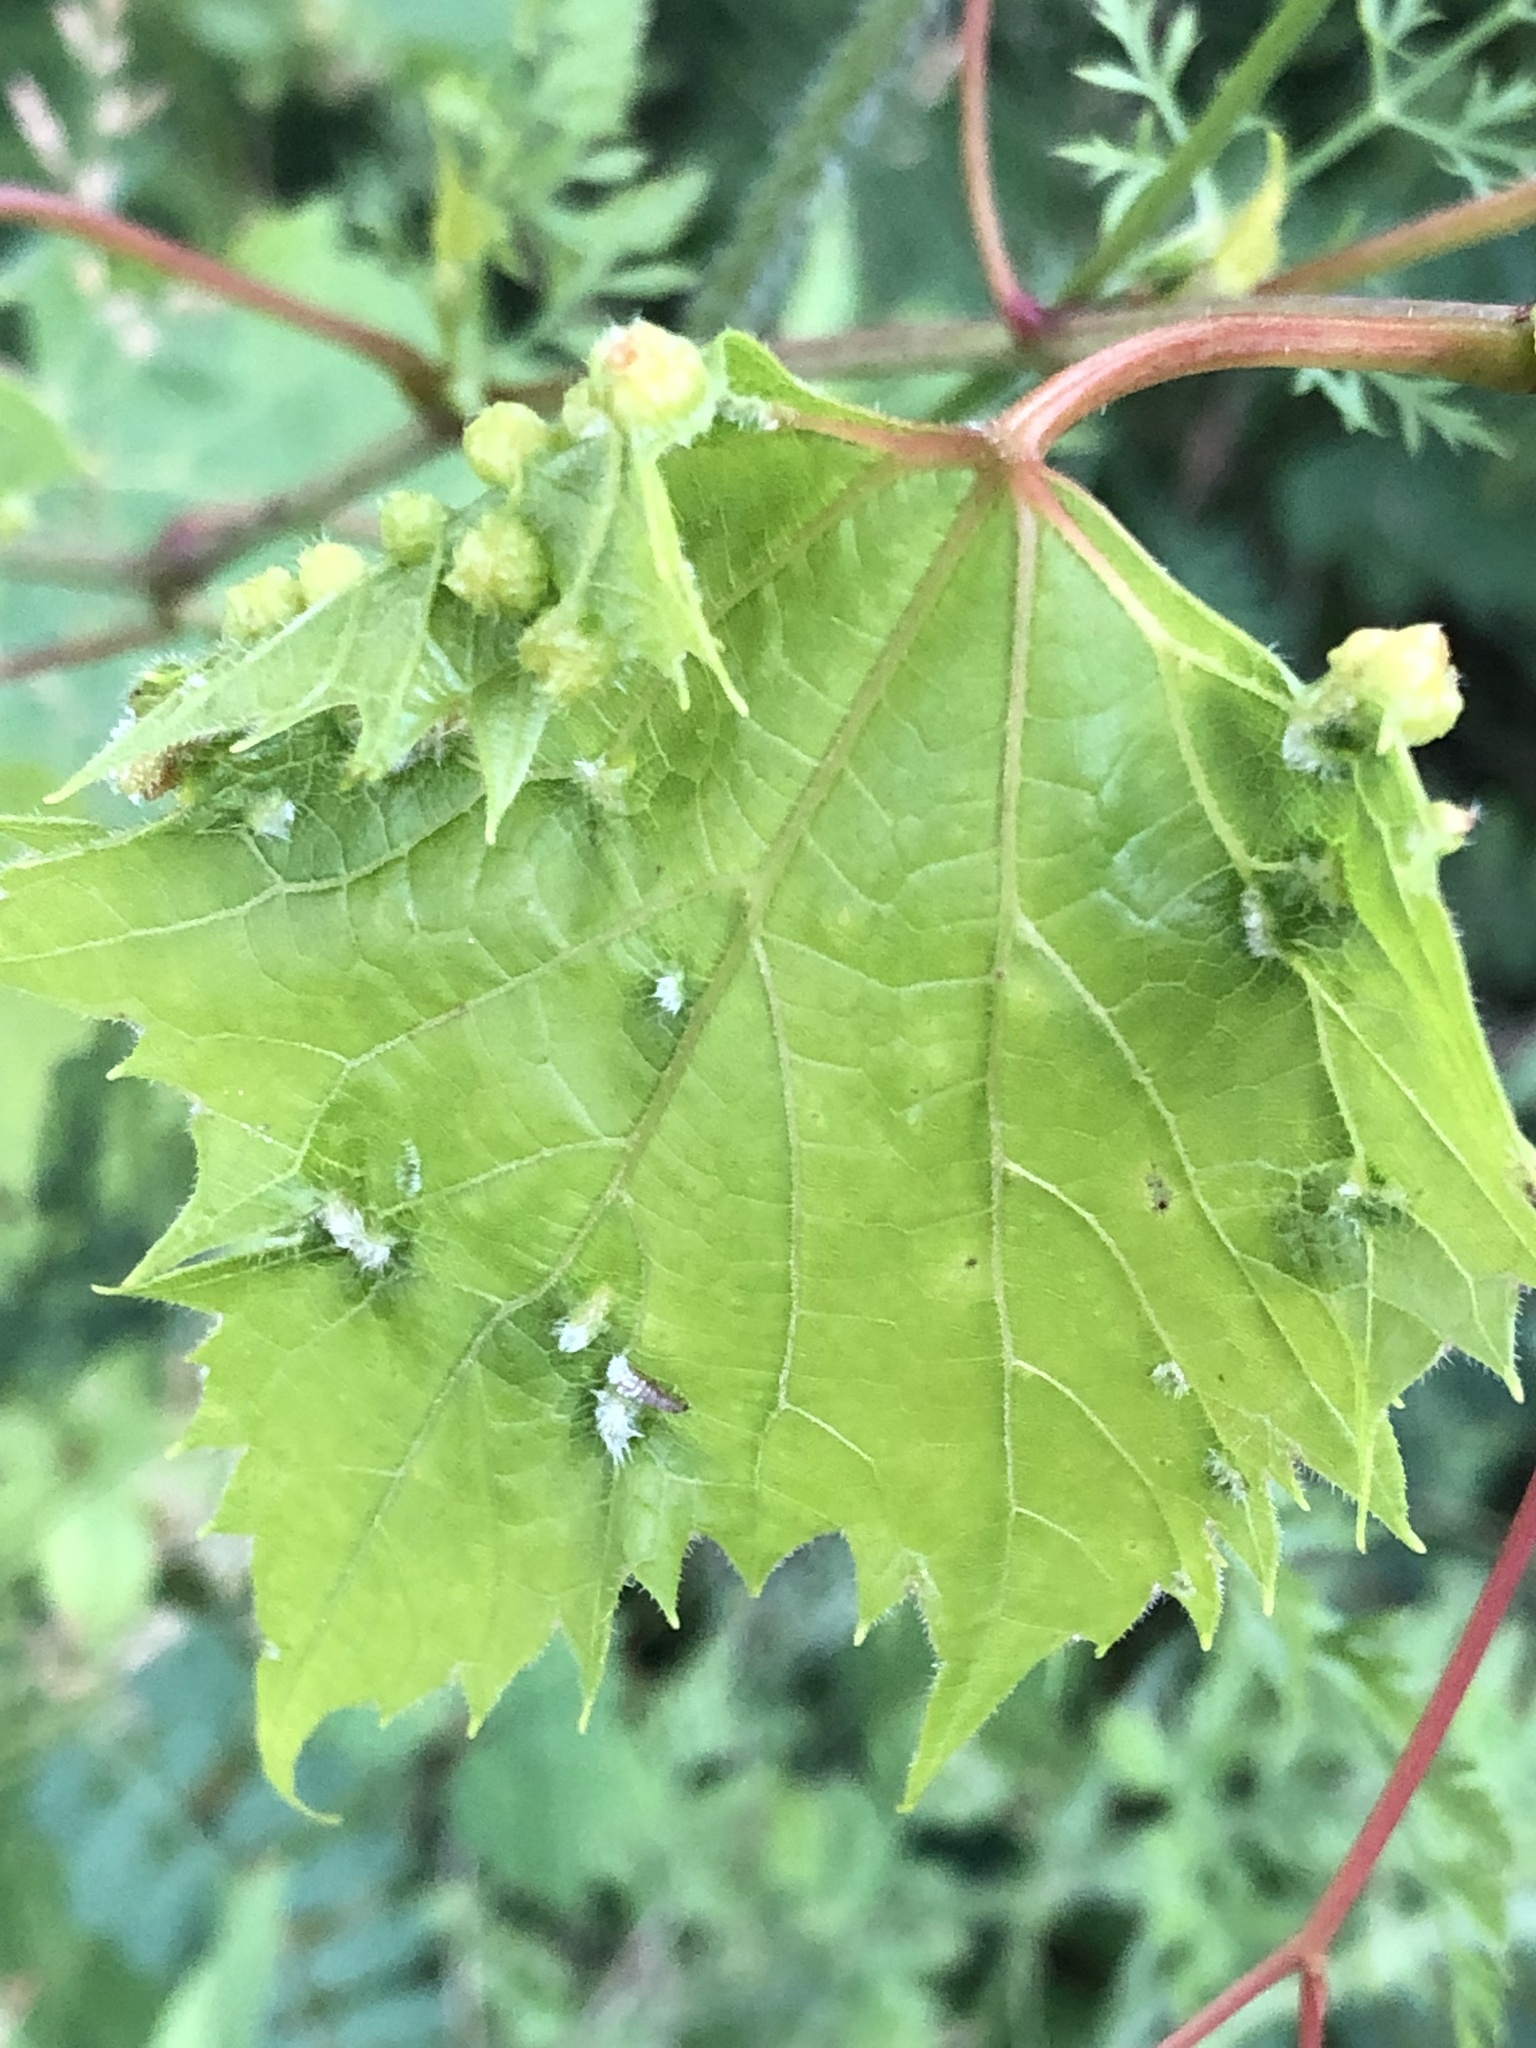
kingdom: Animalia
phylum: Arthropoda
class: Insecta
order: Hemiptera
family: Phylloxeridae
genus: Daktulosphaira
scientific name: Daktulosphaira vitifoliae
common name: Grape phylloxera
